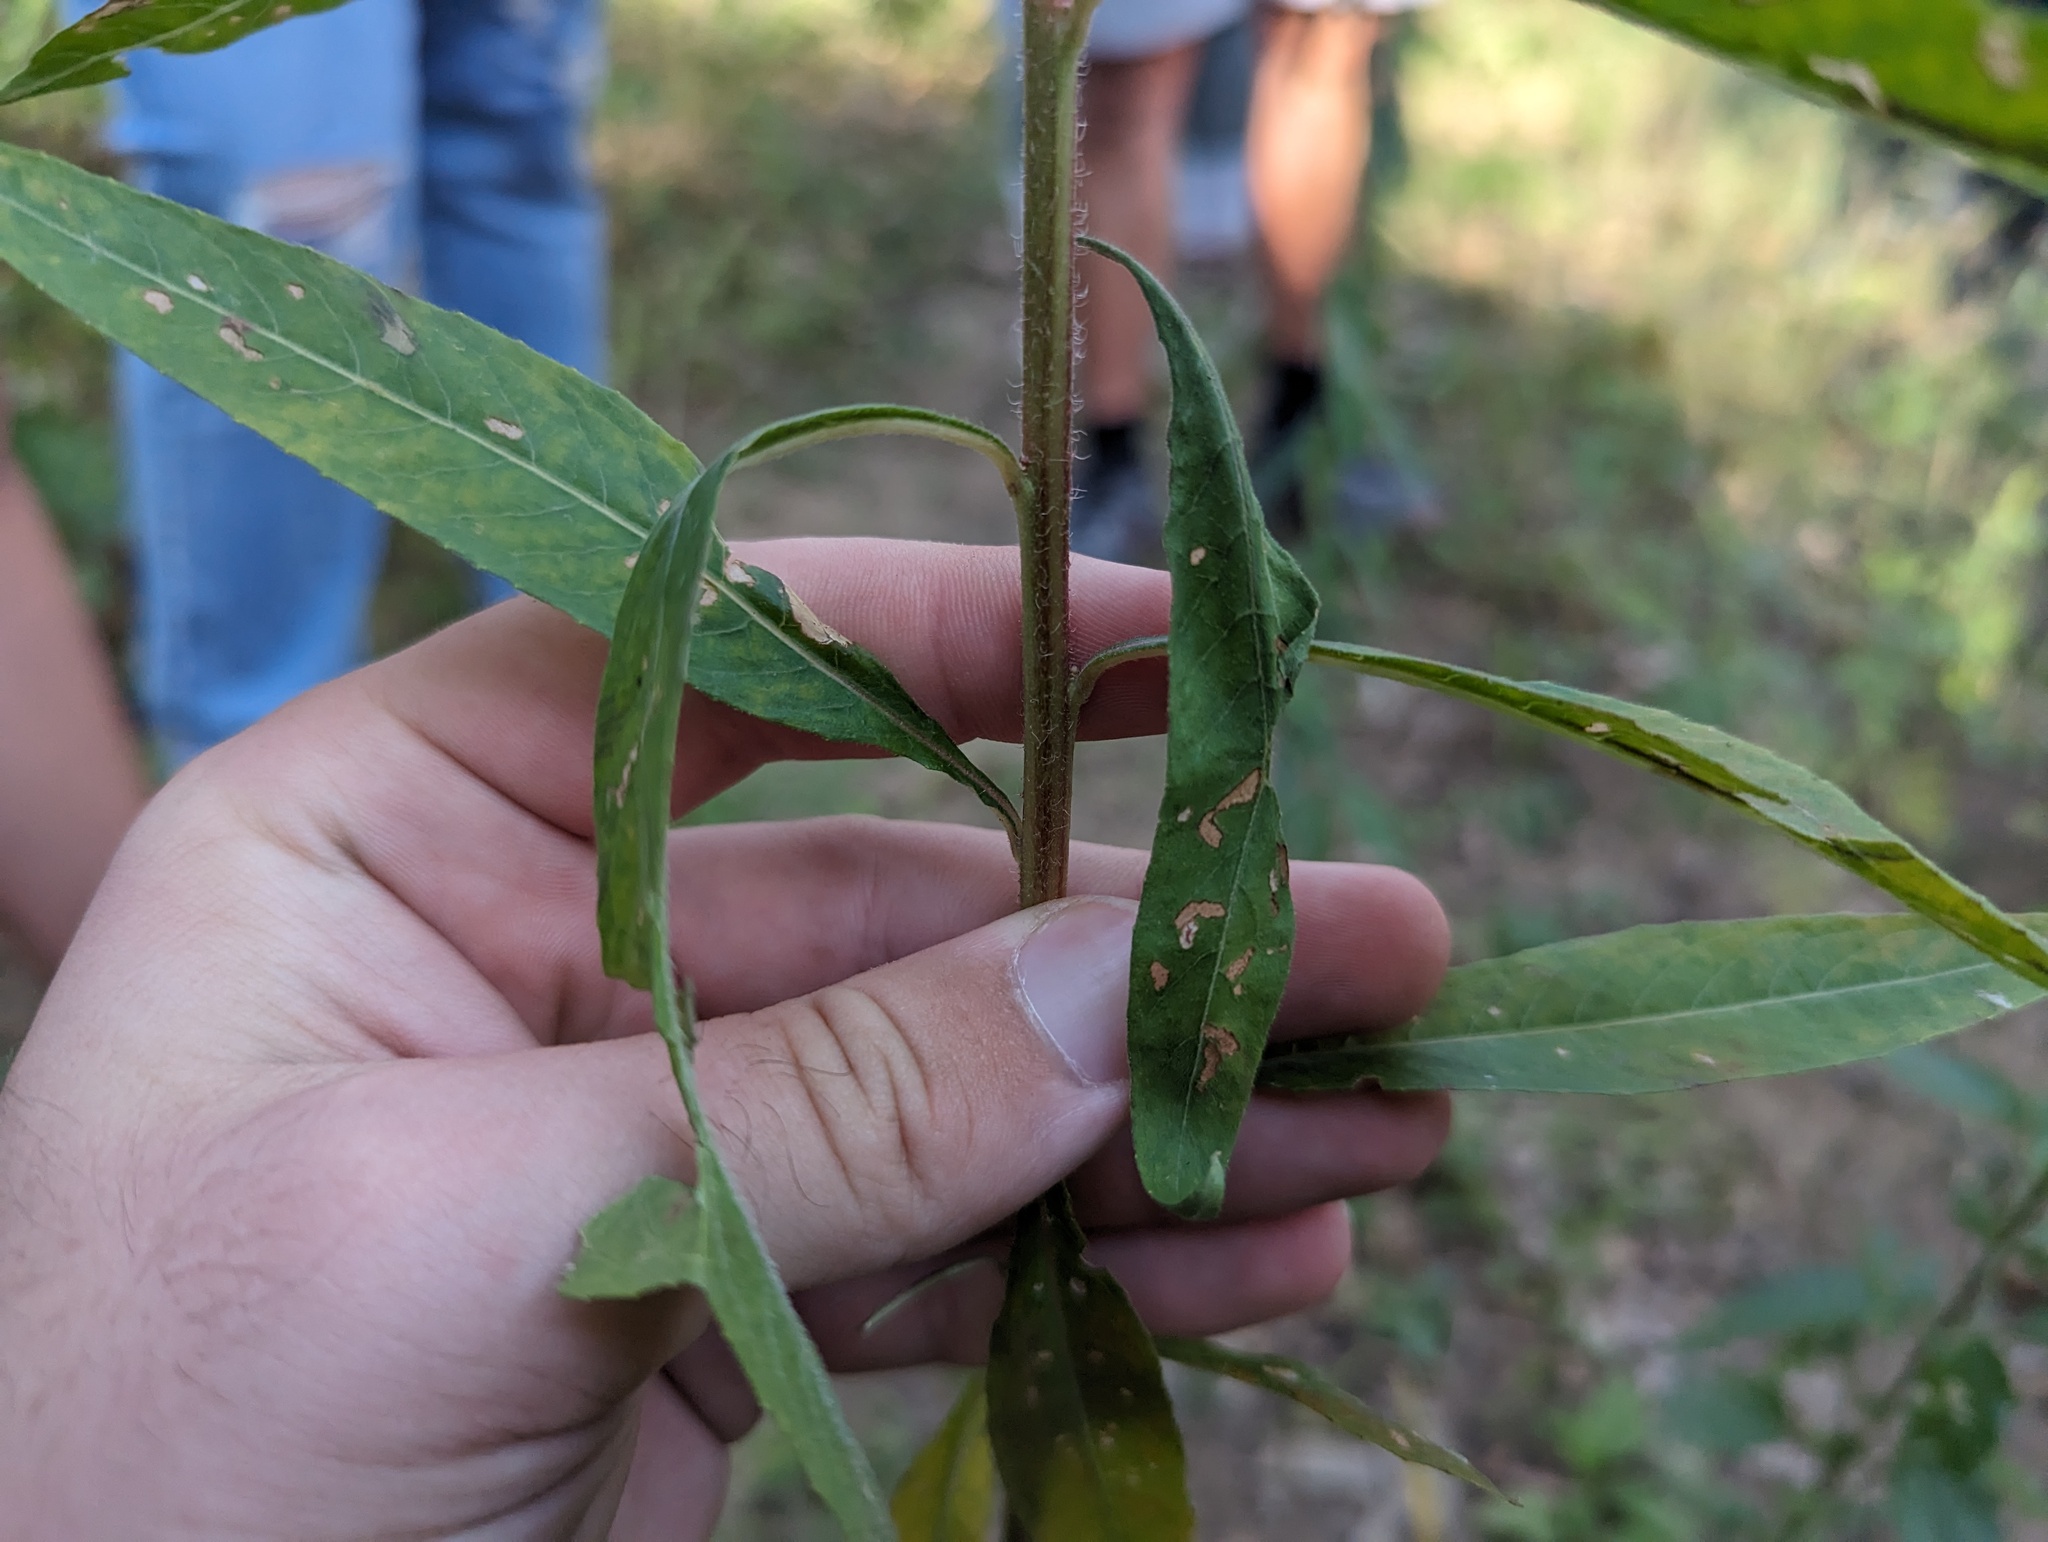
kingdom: Plantae
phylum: Tracheophyta
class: Magnoliopsida
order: Myrtales
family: Onagraceae
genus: Oenothera
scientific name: Oenothera nutans
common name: Nodding evening-primrose
